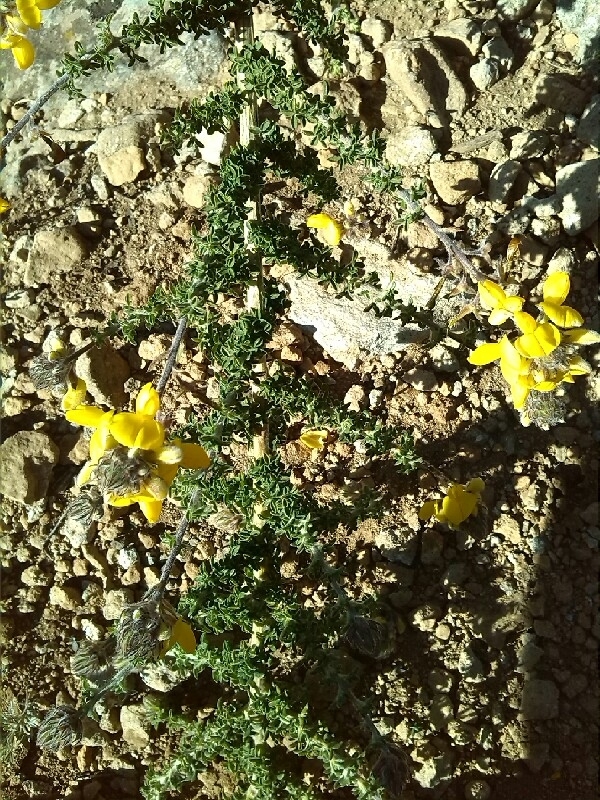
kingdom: Plantae
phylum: Tracheophyta
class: Magnoliopsida
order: Fabales
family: Fabaceae
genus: Adenocarpus
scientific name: Adenocarpus foliolosus
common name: Canary island flatpod
